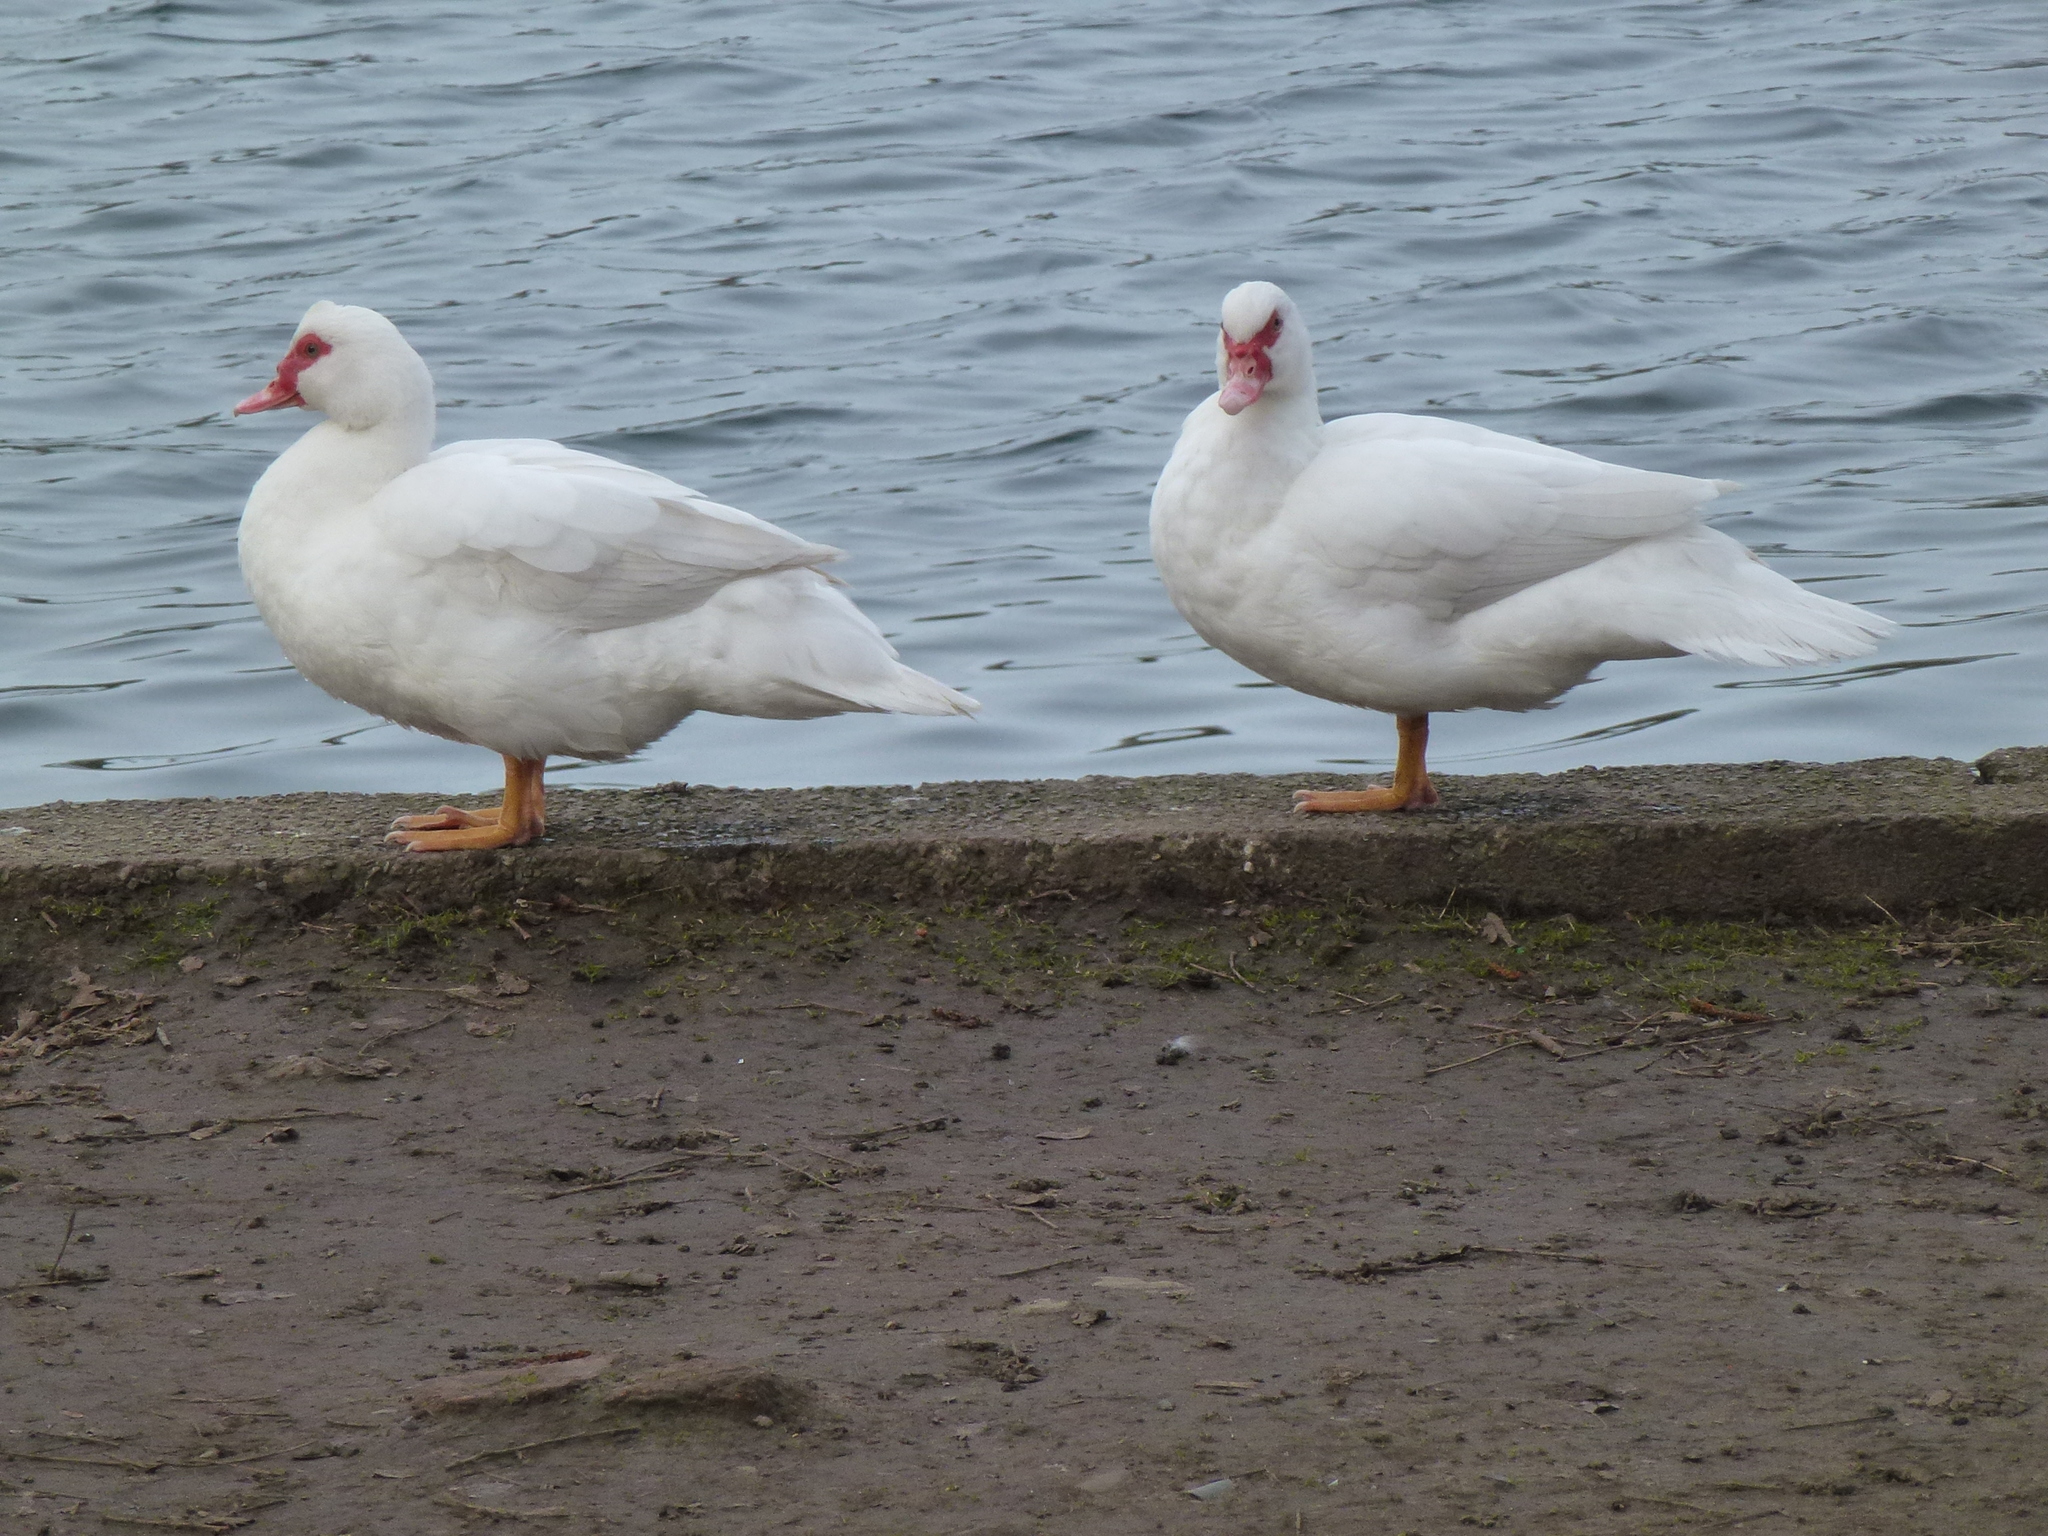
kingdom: Animalia
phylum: Chordata
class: Aves
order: Anseriformes
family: Anatidae
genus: Cairina
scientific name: Cairina moschata
